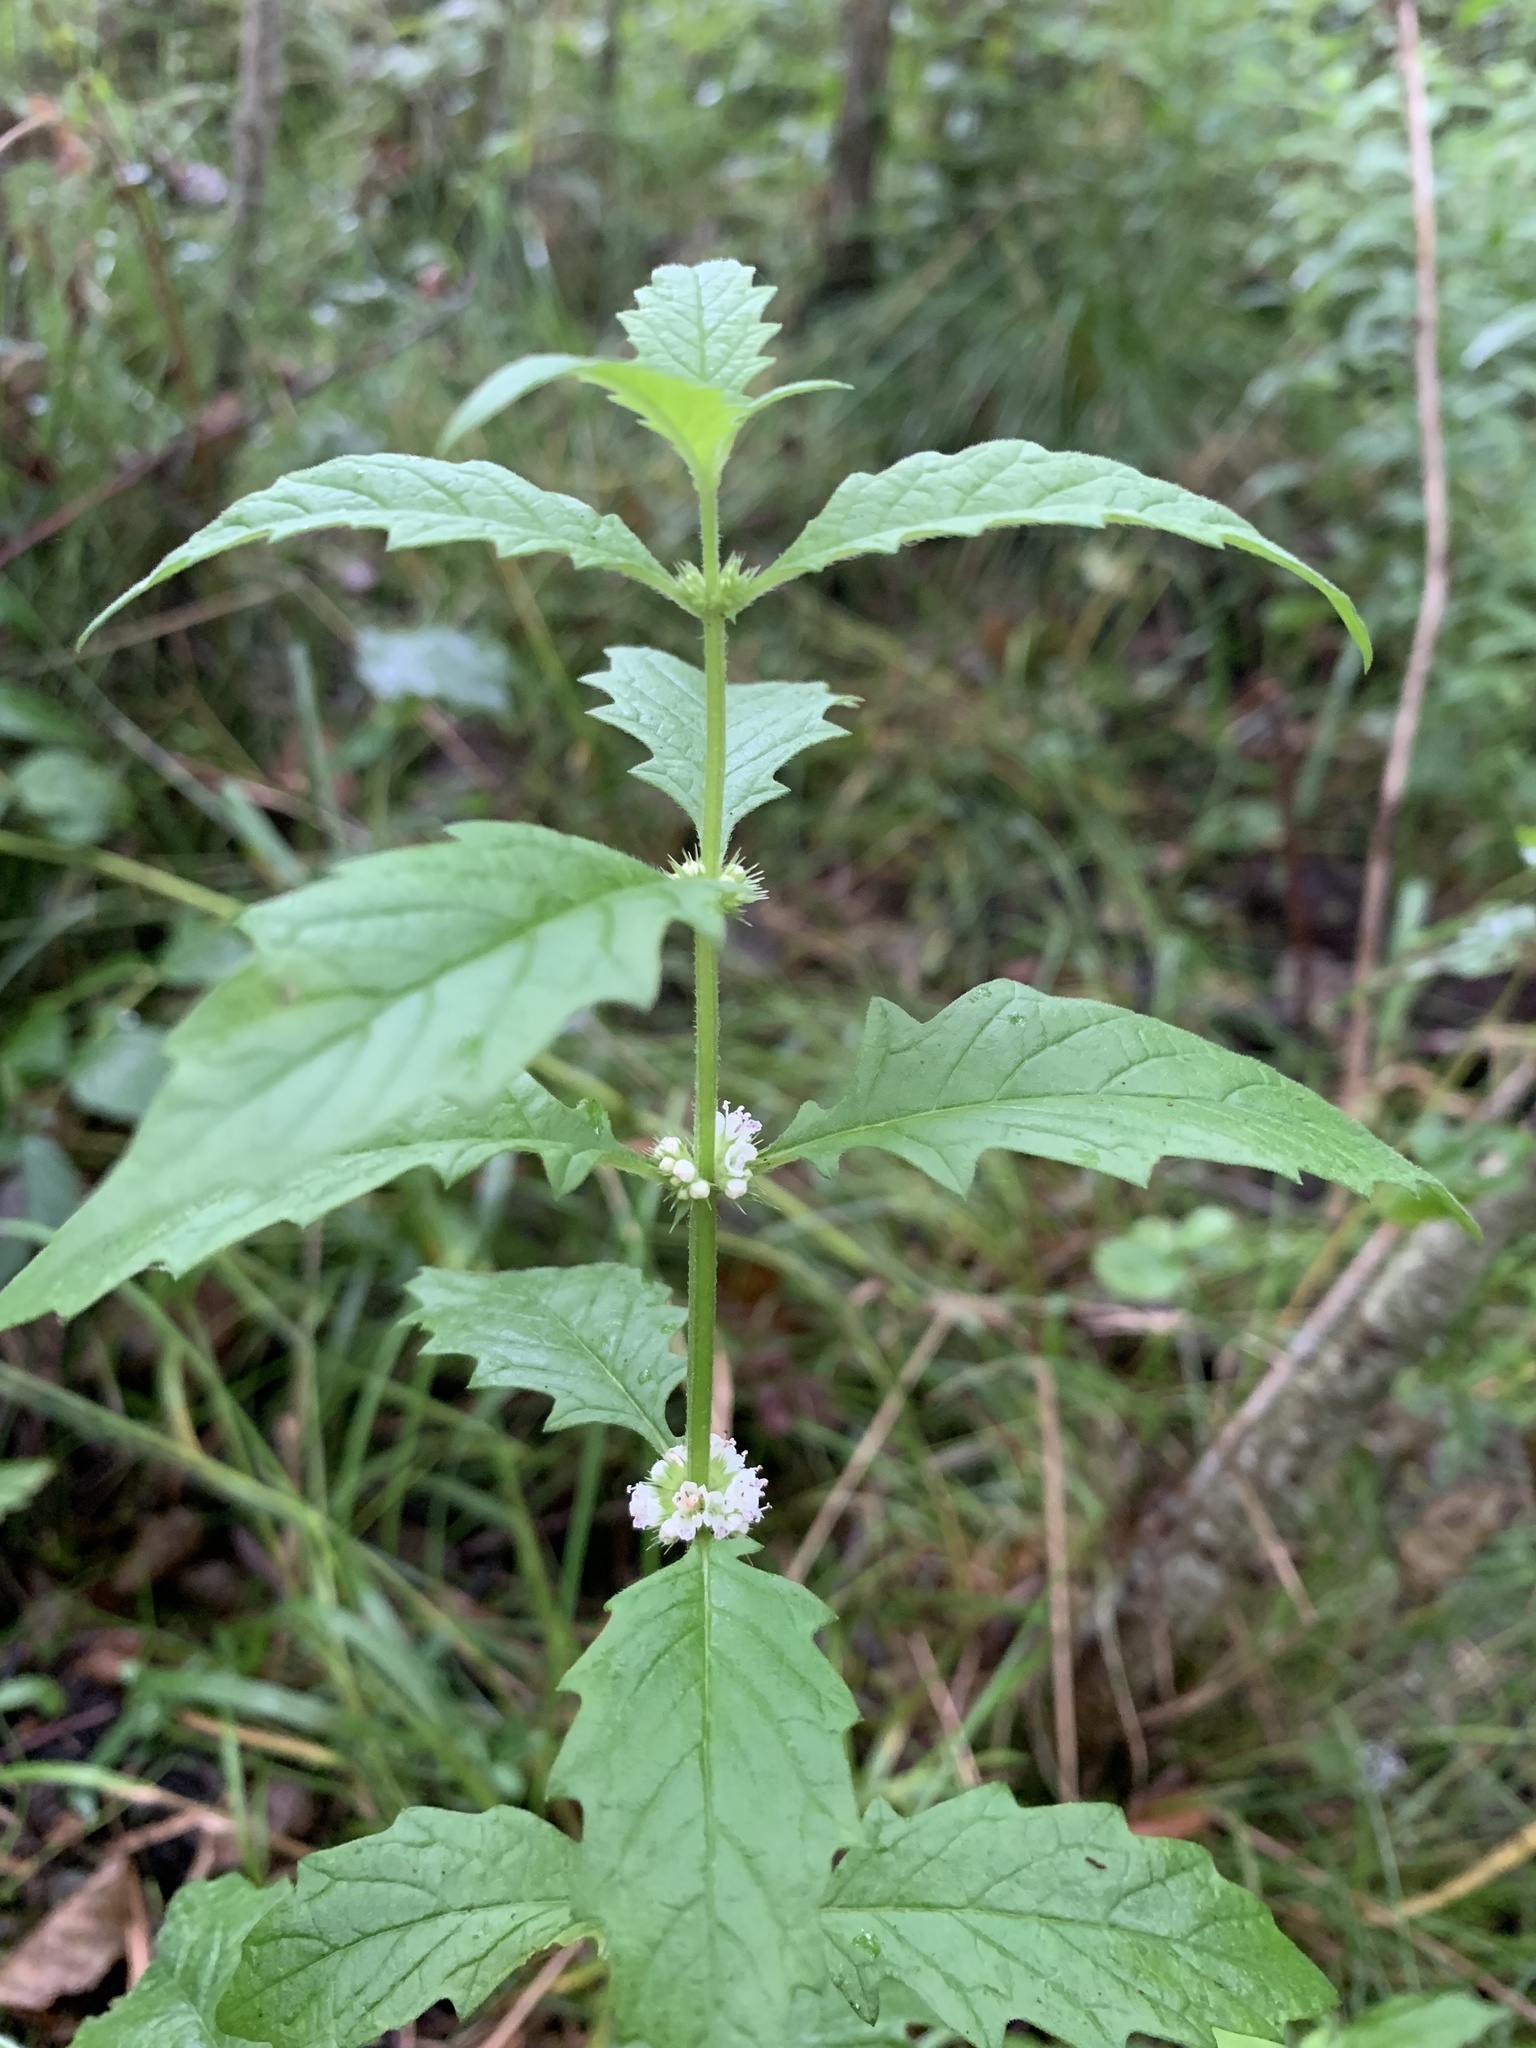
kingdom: Plantae
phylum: Tracheophyta
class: Magnoliopsida
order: Lamiales
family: Lamiaceae
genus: Lycopus
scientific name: Lycopus europaeus
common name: European bugleweed
